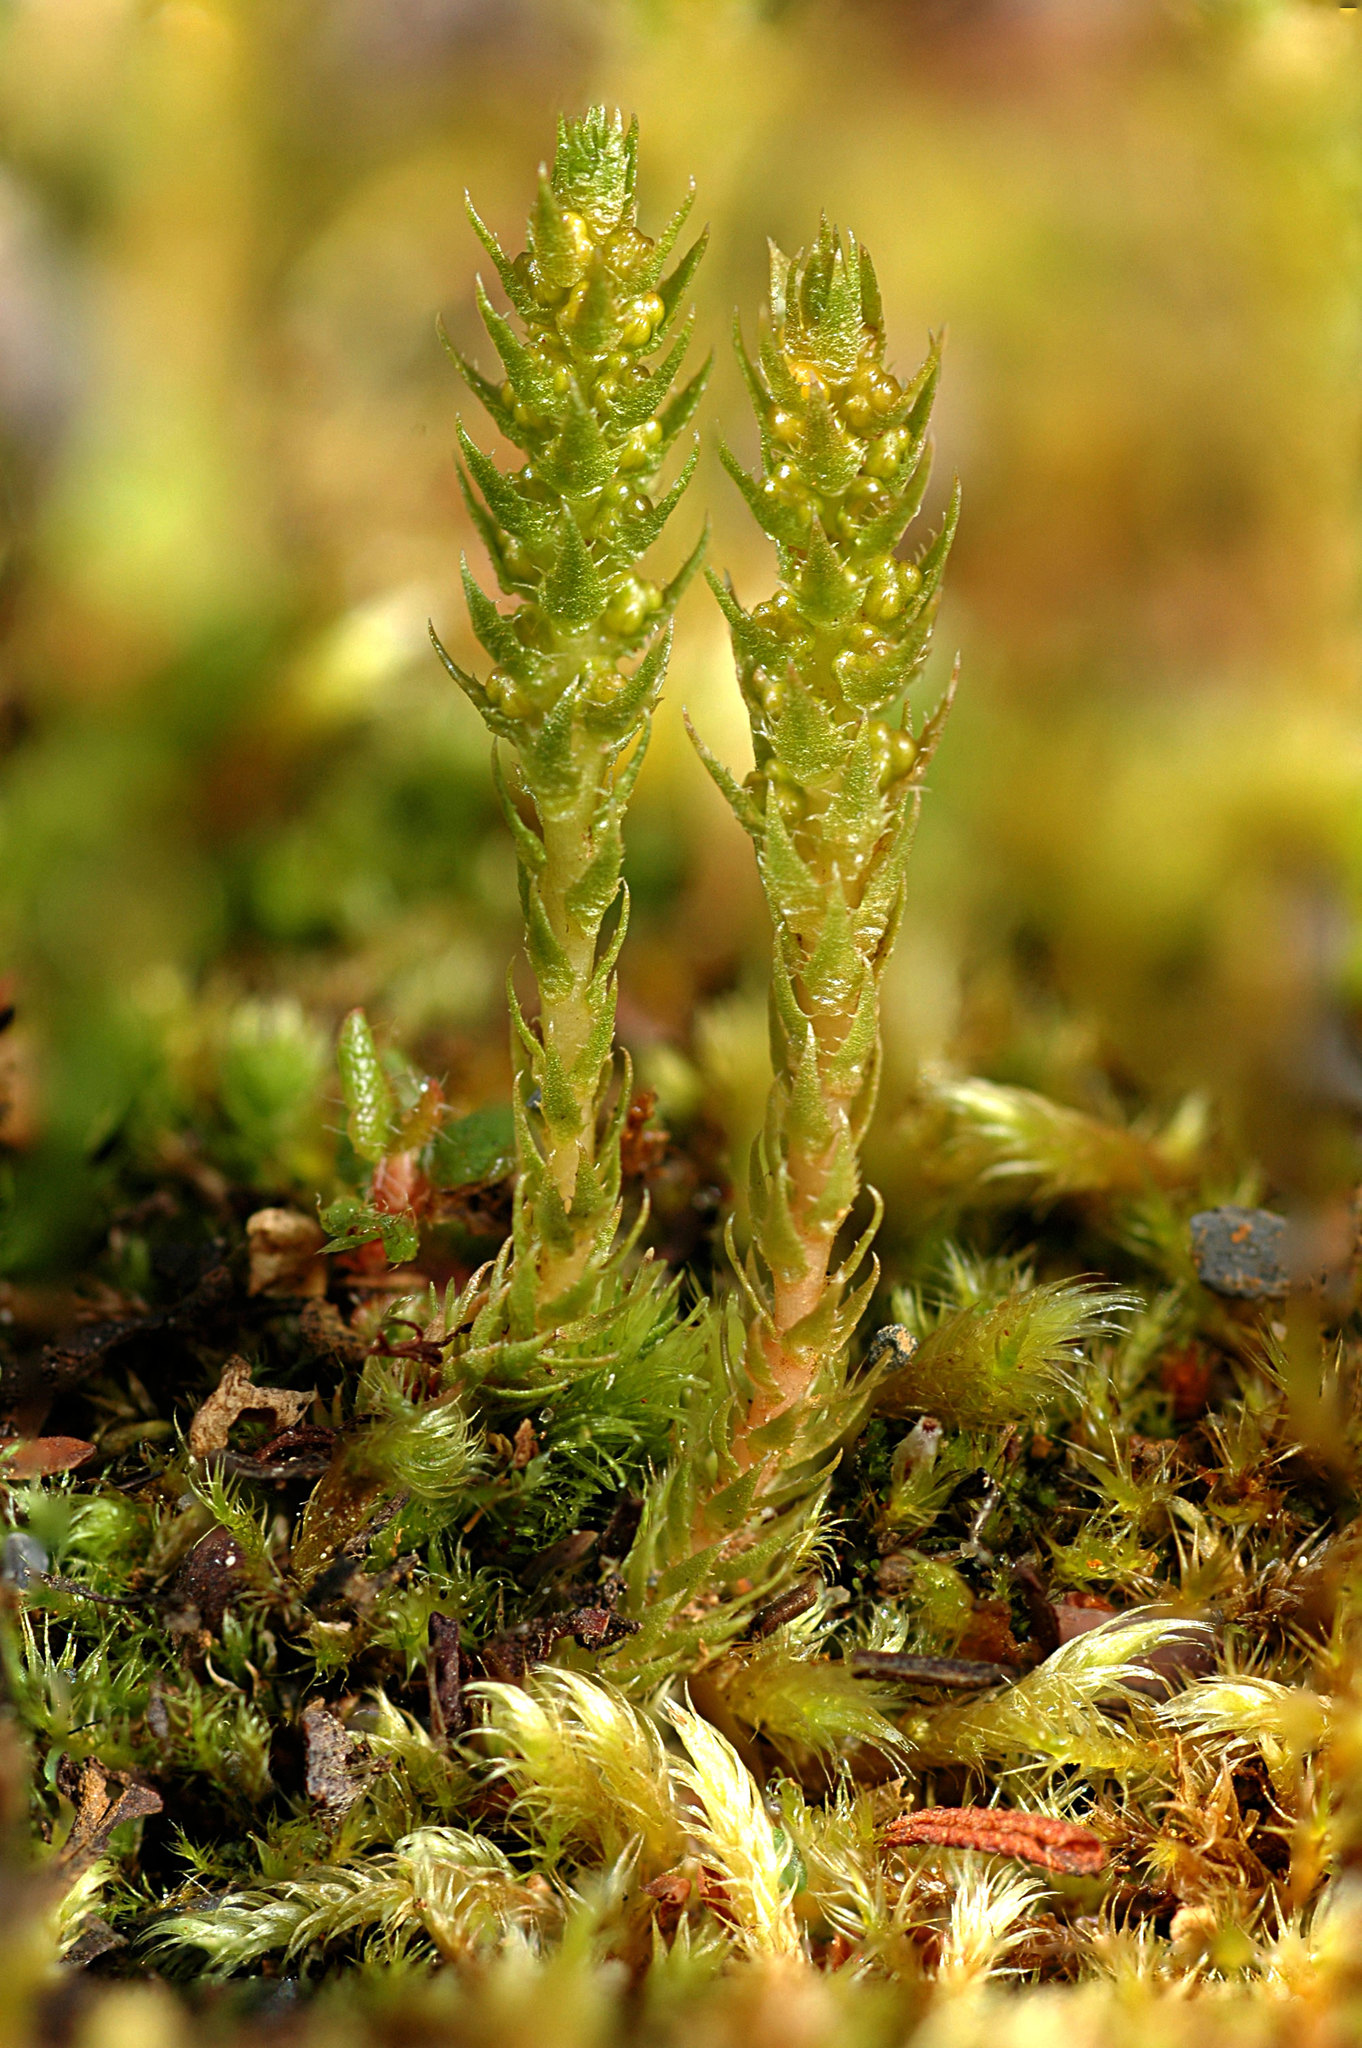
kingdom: Plantae
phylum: Tracheophyta
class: Lycopodiopsida
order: Selaginellales
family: Selaginellaceae
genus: Selaginella
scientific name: Selaginella selaginoides
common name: Prickly mountain-moss
